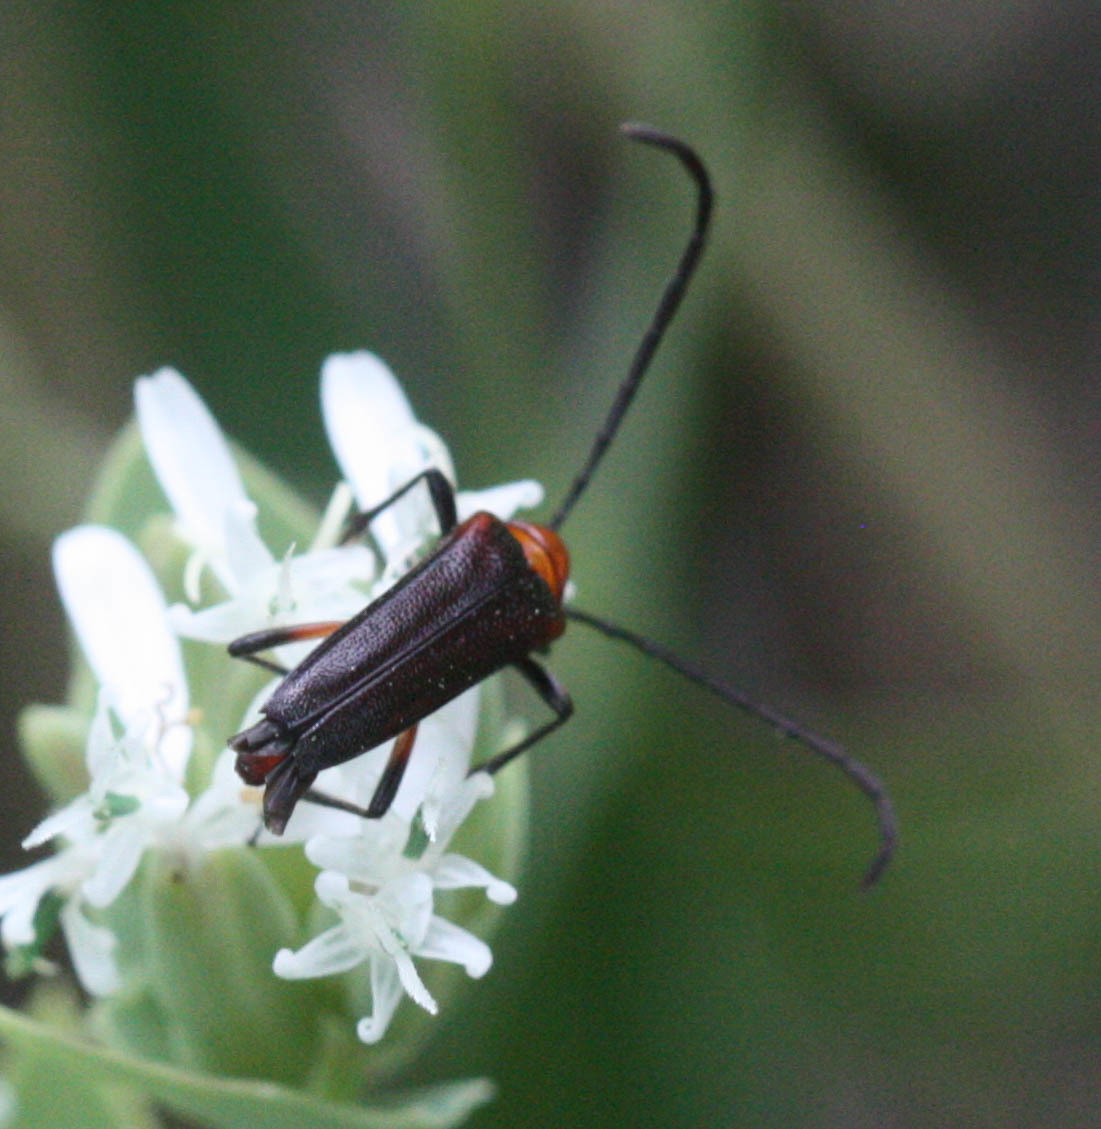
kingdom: Animalia
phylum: Arthropoda
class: Insecta
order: Coleoptera
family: Cerambycidae
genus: Cyphonotida
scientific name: Cyphonotida rostrata
